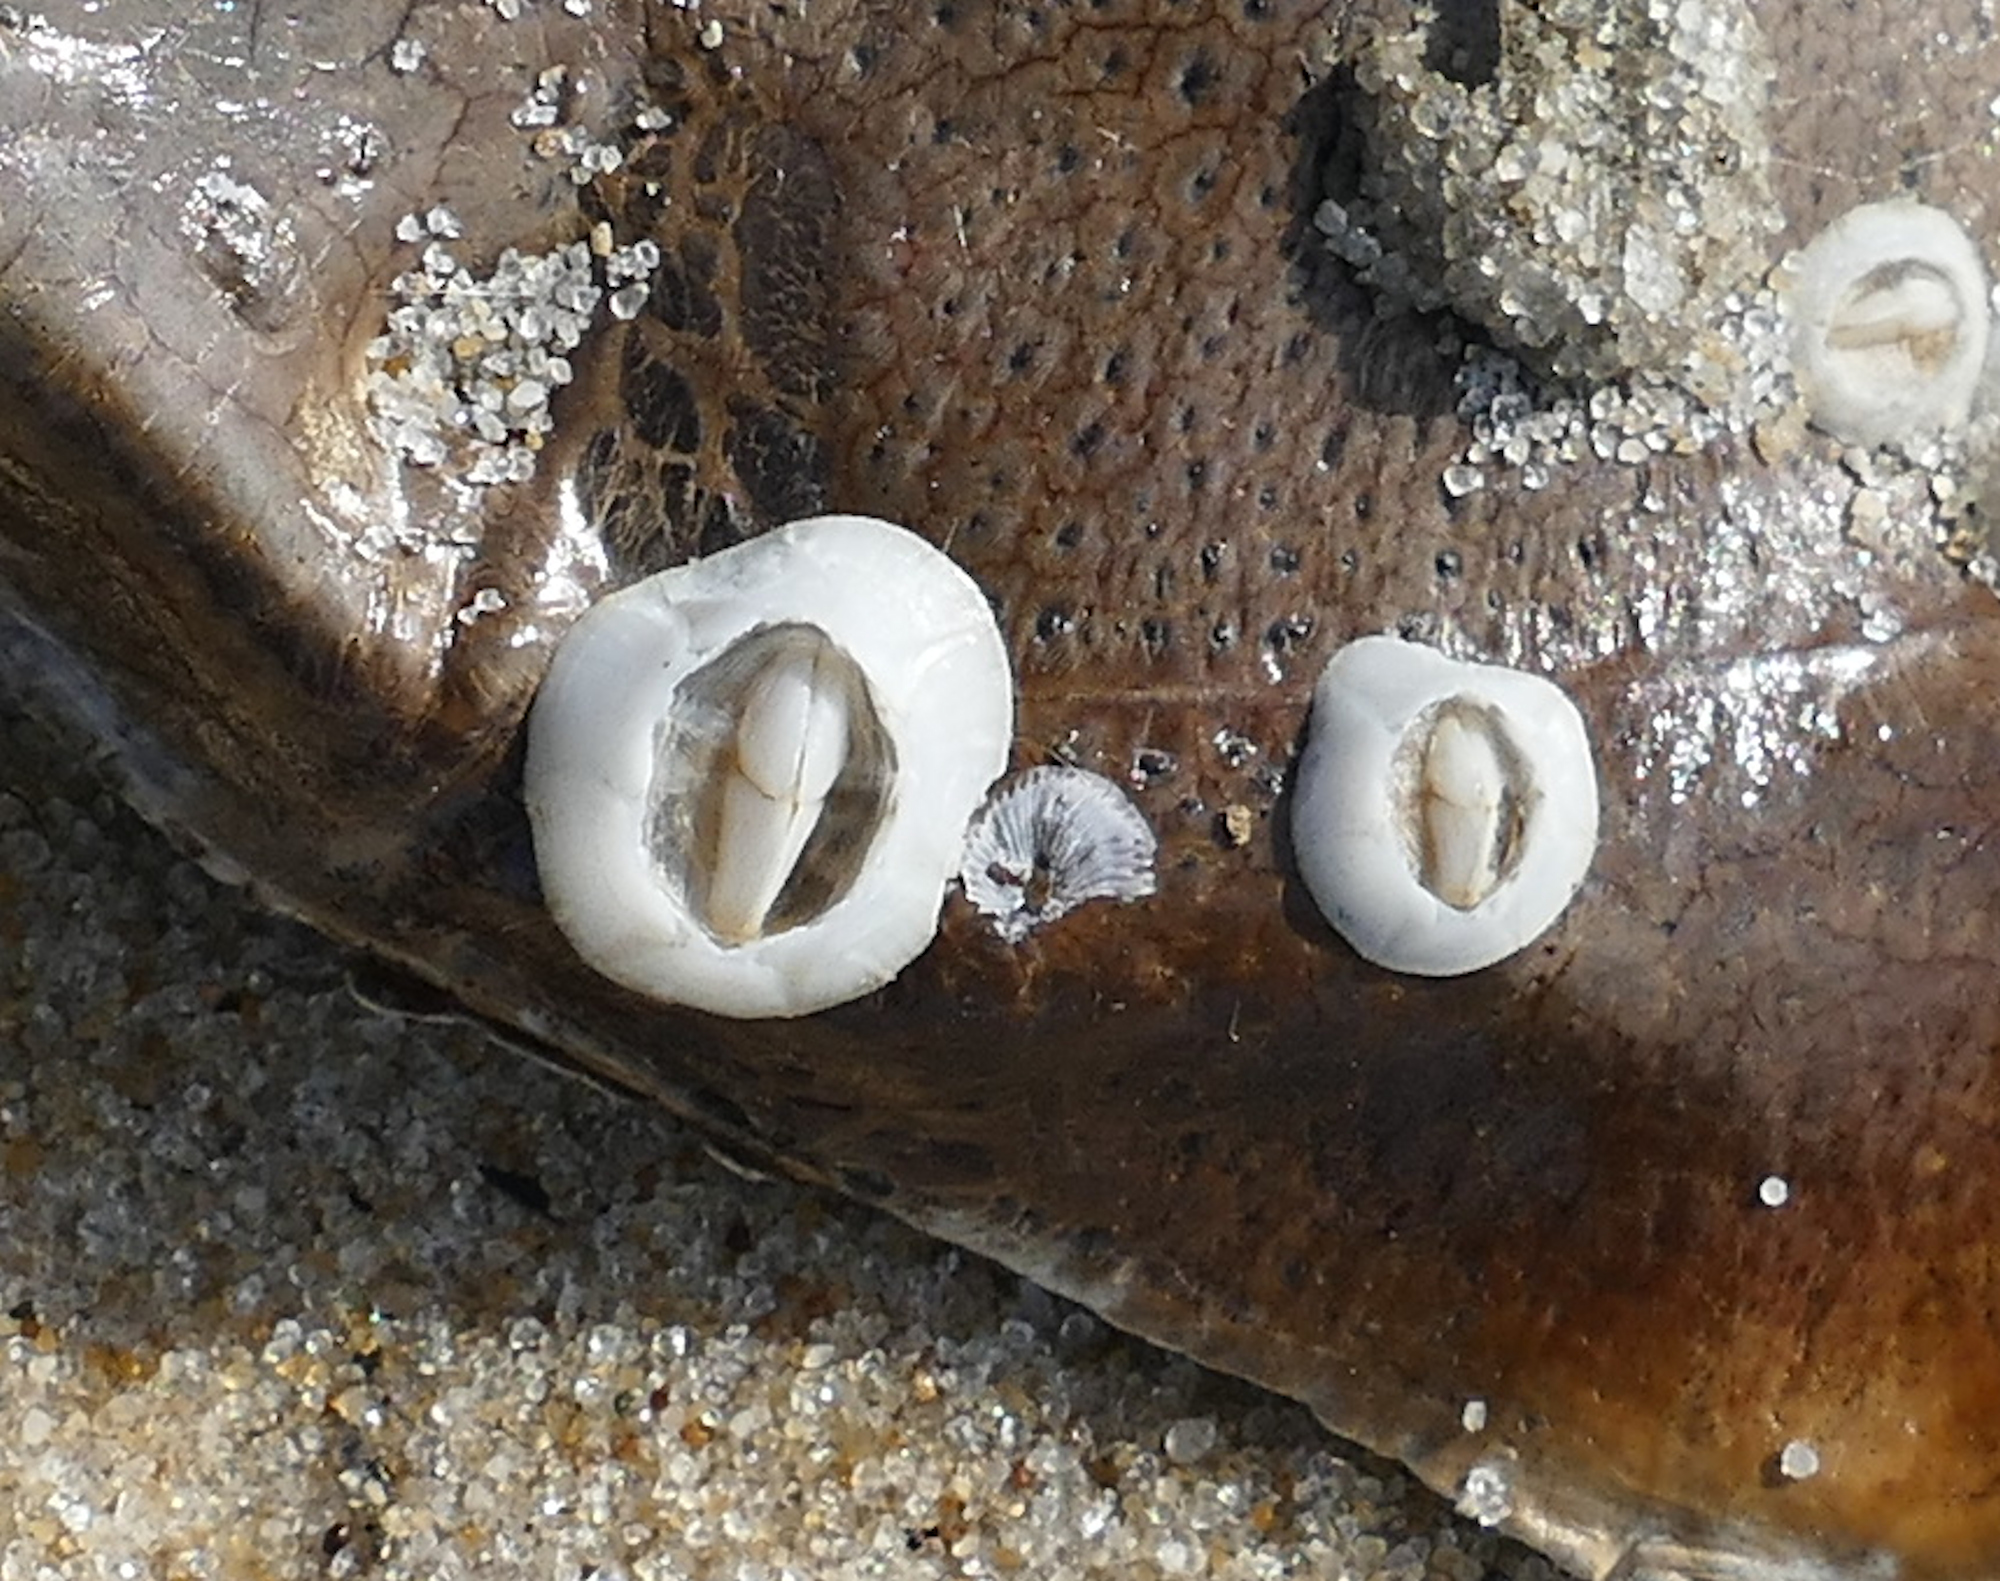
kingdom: Animalia
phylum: Arthropoda
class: Maxillopoda
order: Sessilia
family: Chelonibiidae
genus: Chelonibia
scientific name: Chelonibia testudinaria
